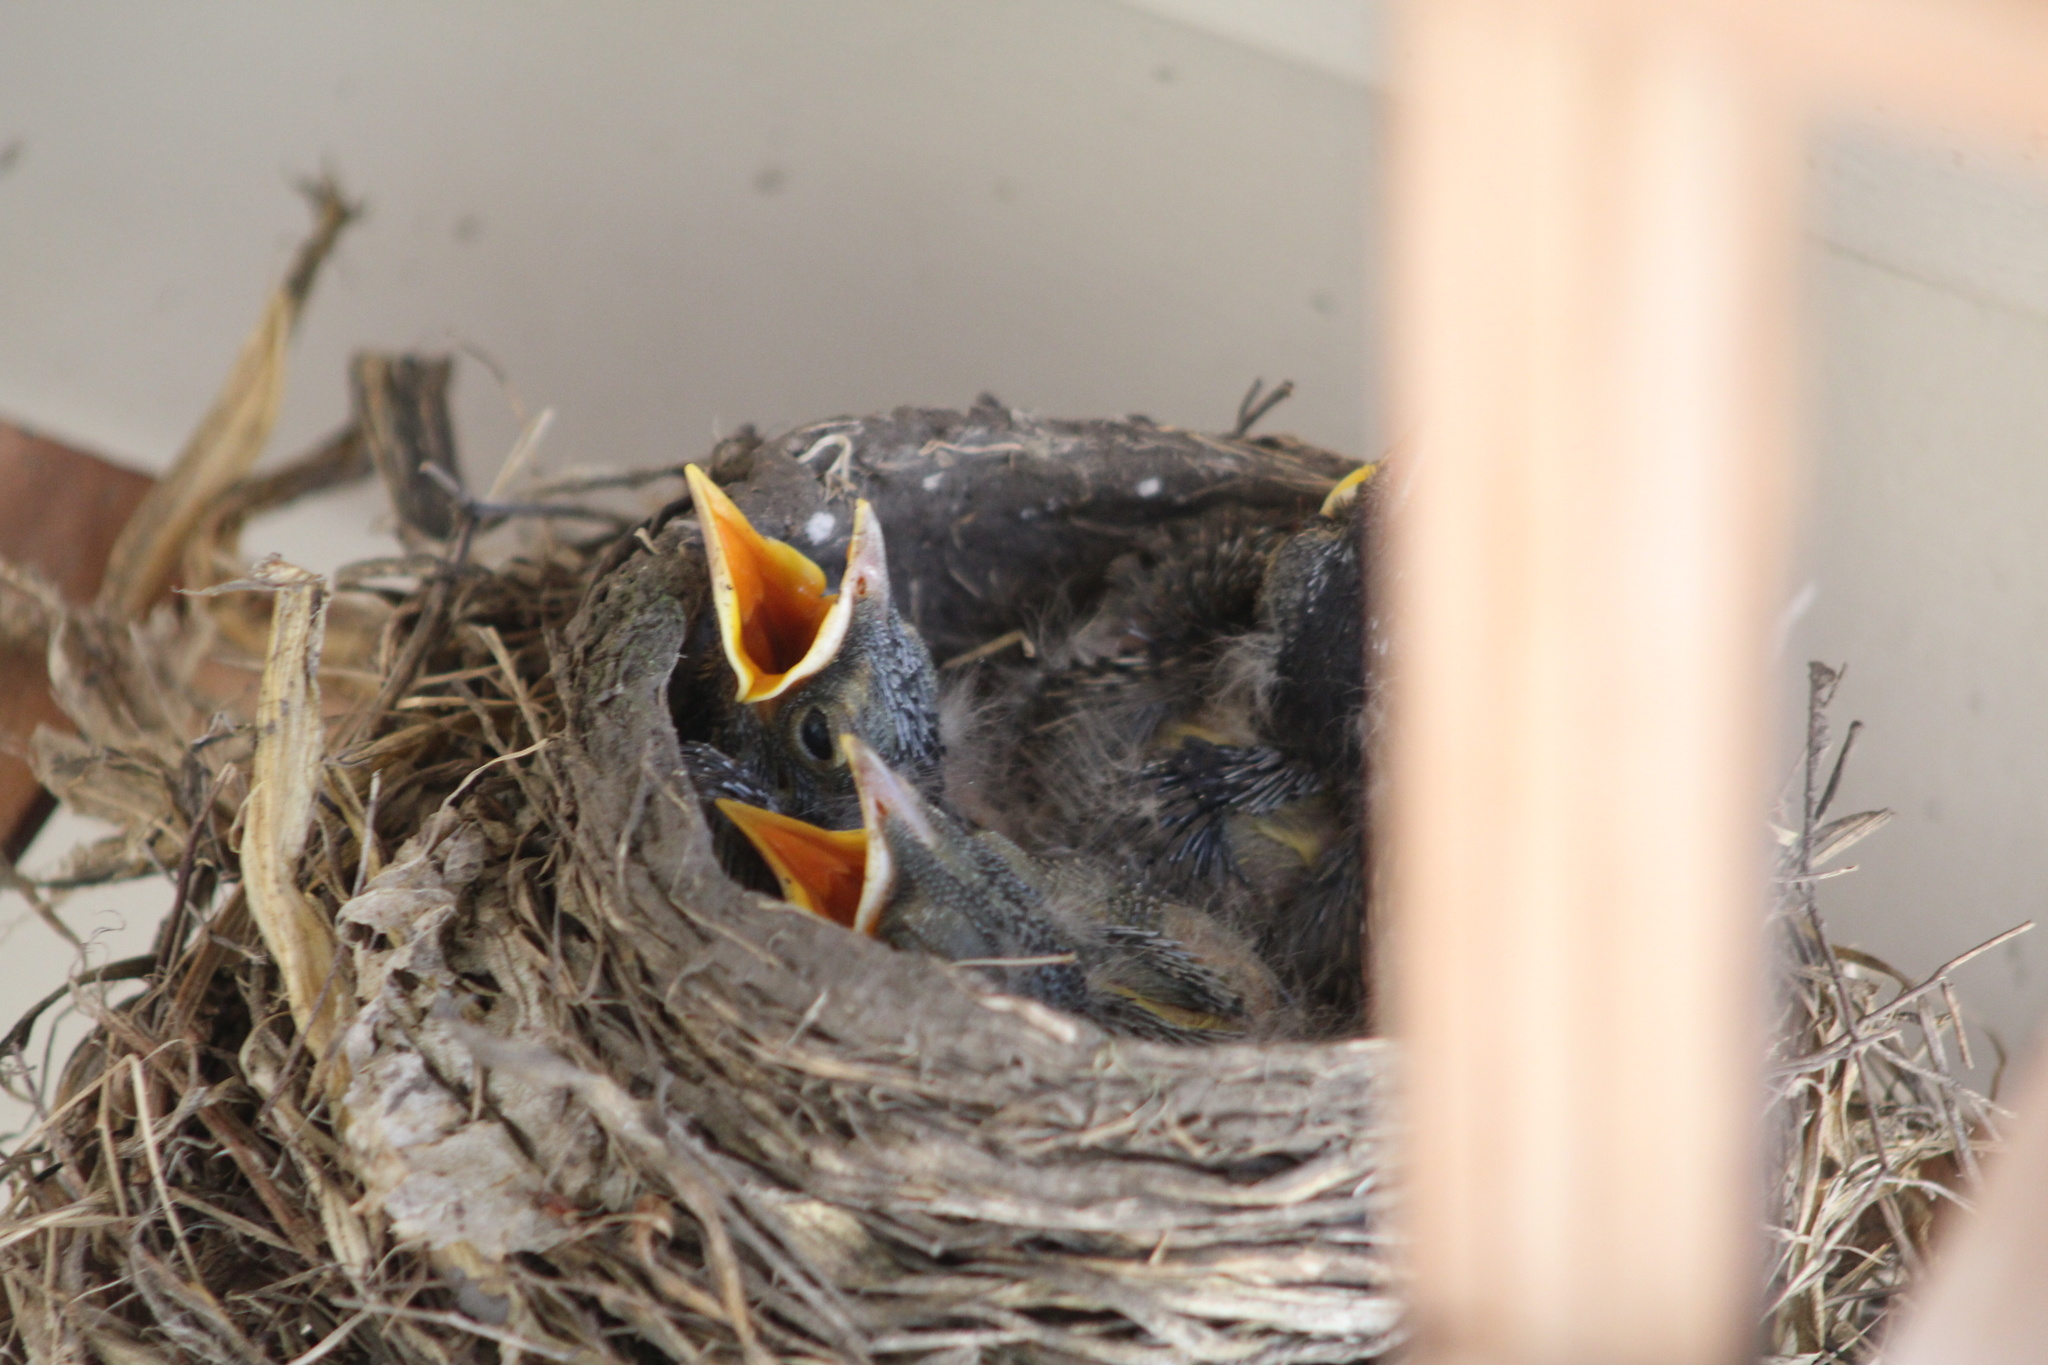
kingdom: Animalia
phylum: Chordata
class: Aves
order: Passeriformes
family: Turdidae
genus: Turdus
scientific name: Turdus migratorius
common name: American robin
